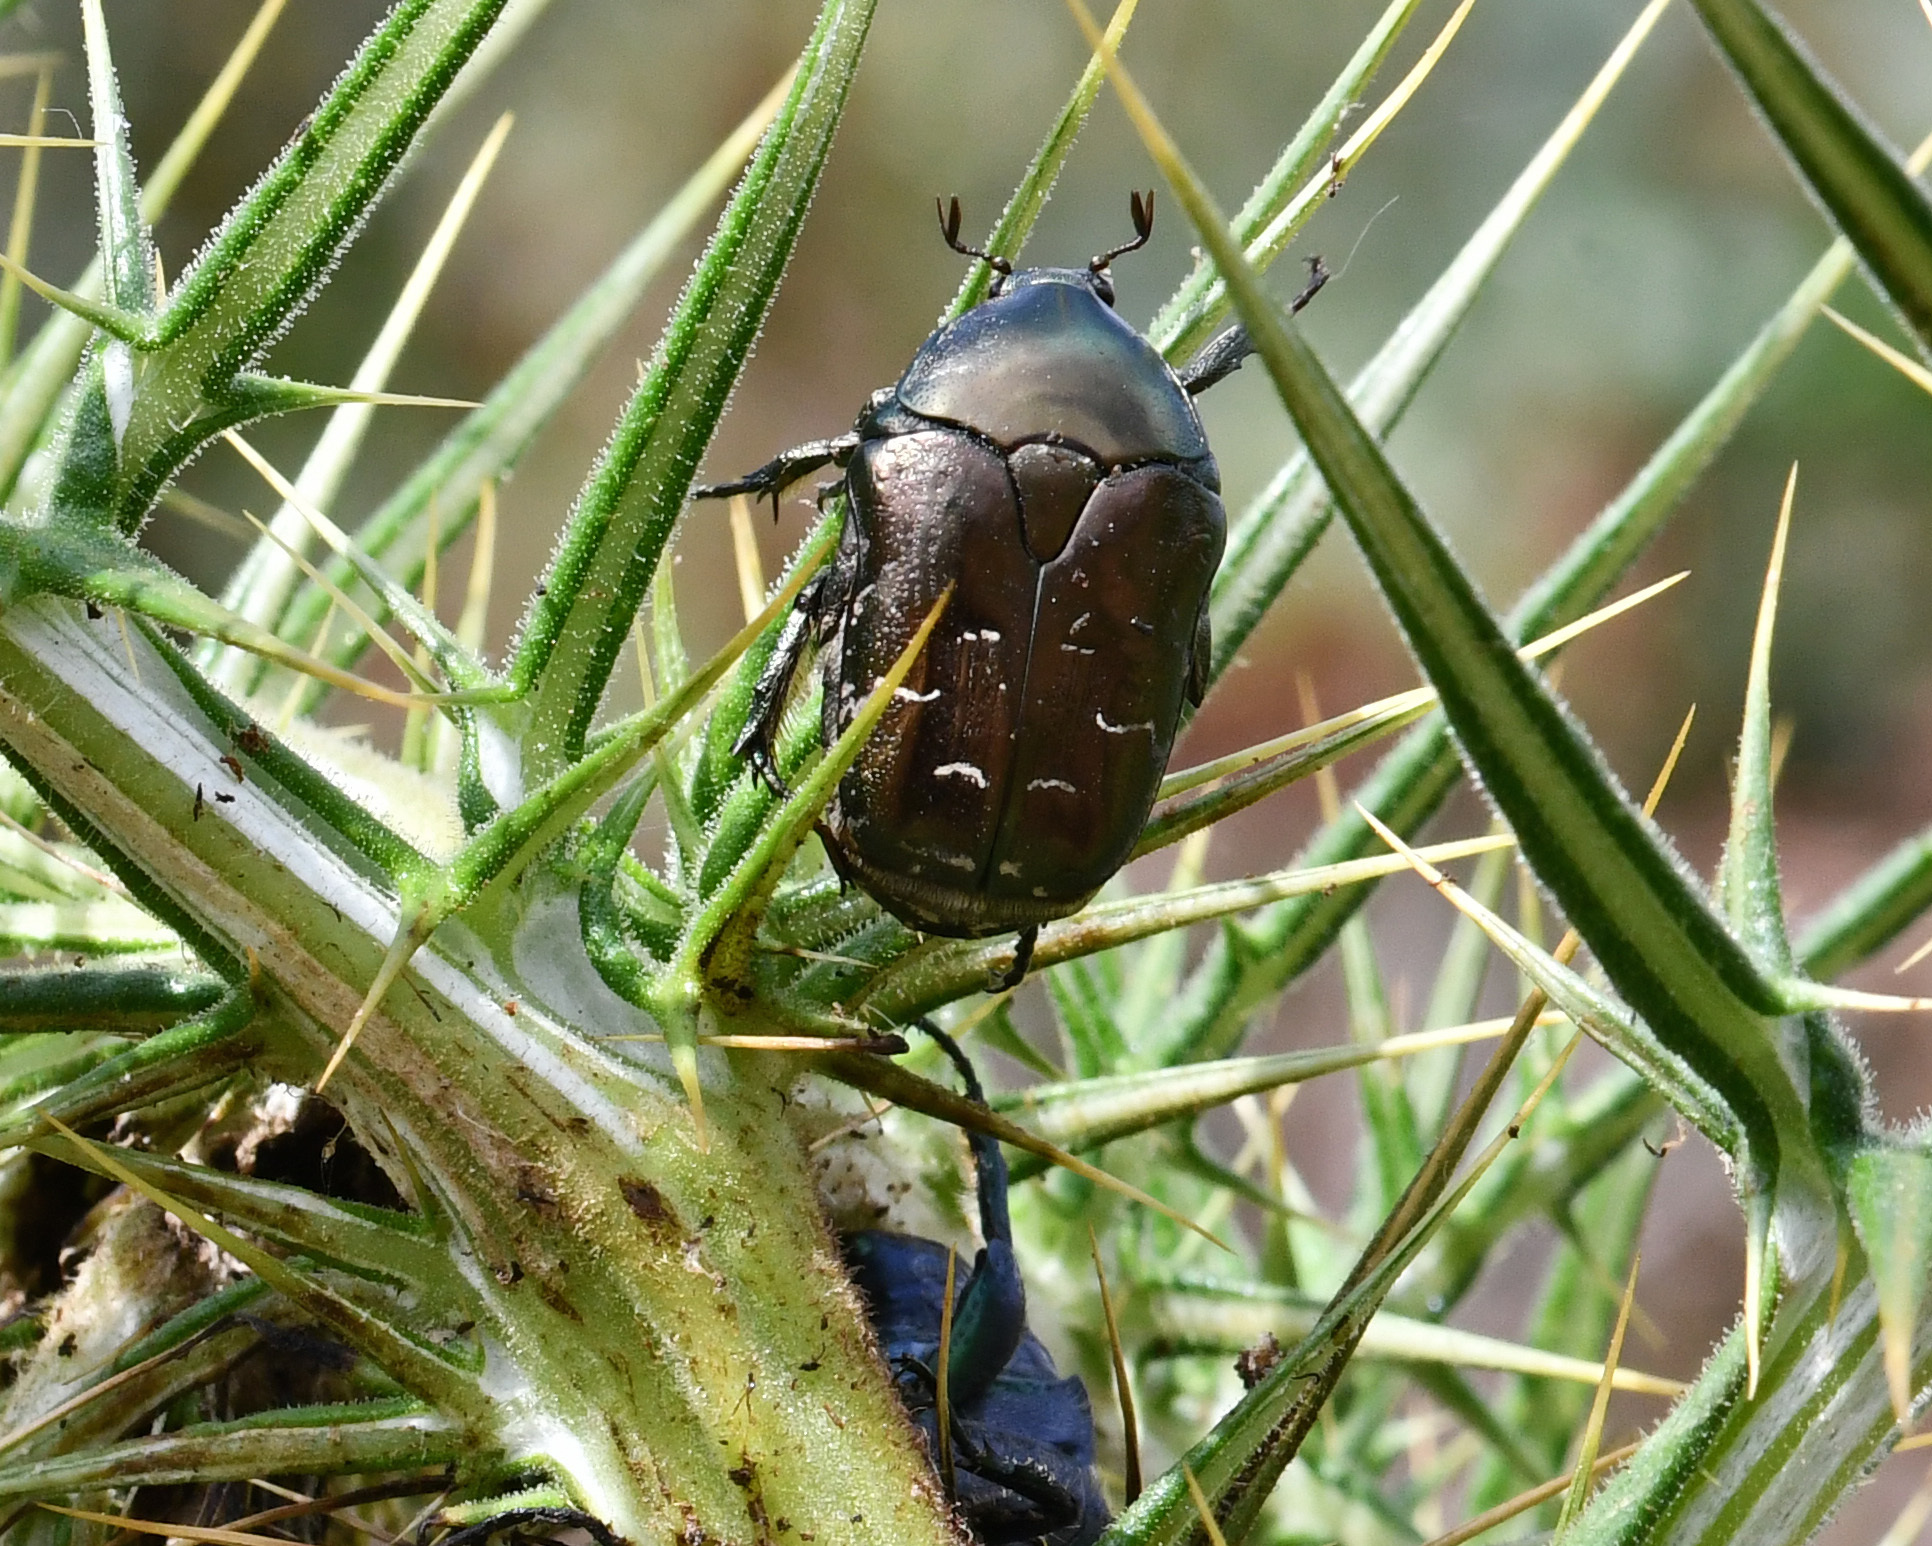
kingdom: Animalia
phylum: Arthropoda
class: Insecta
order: Coleoptera
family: Scarabaeidae
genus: Protaetia
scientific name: Protaetia ikonomovi
